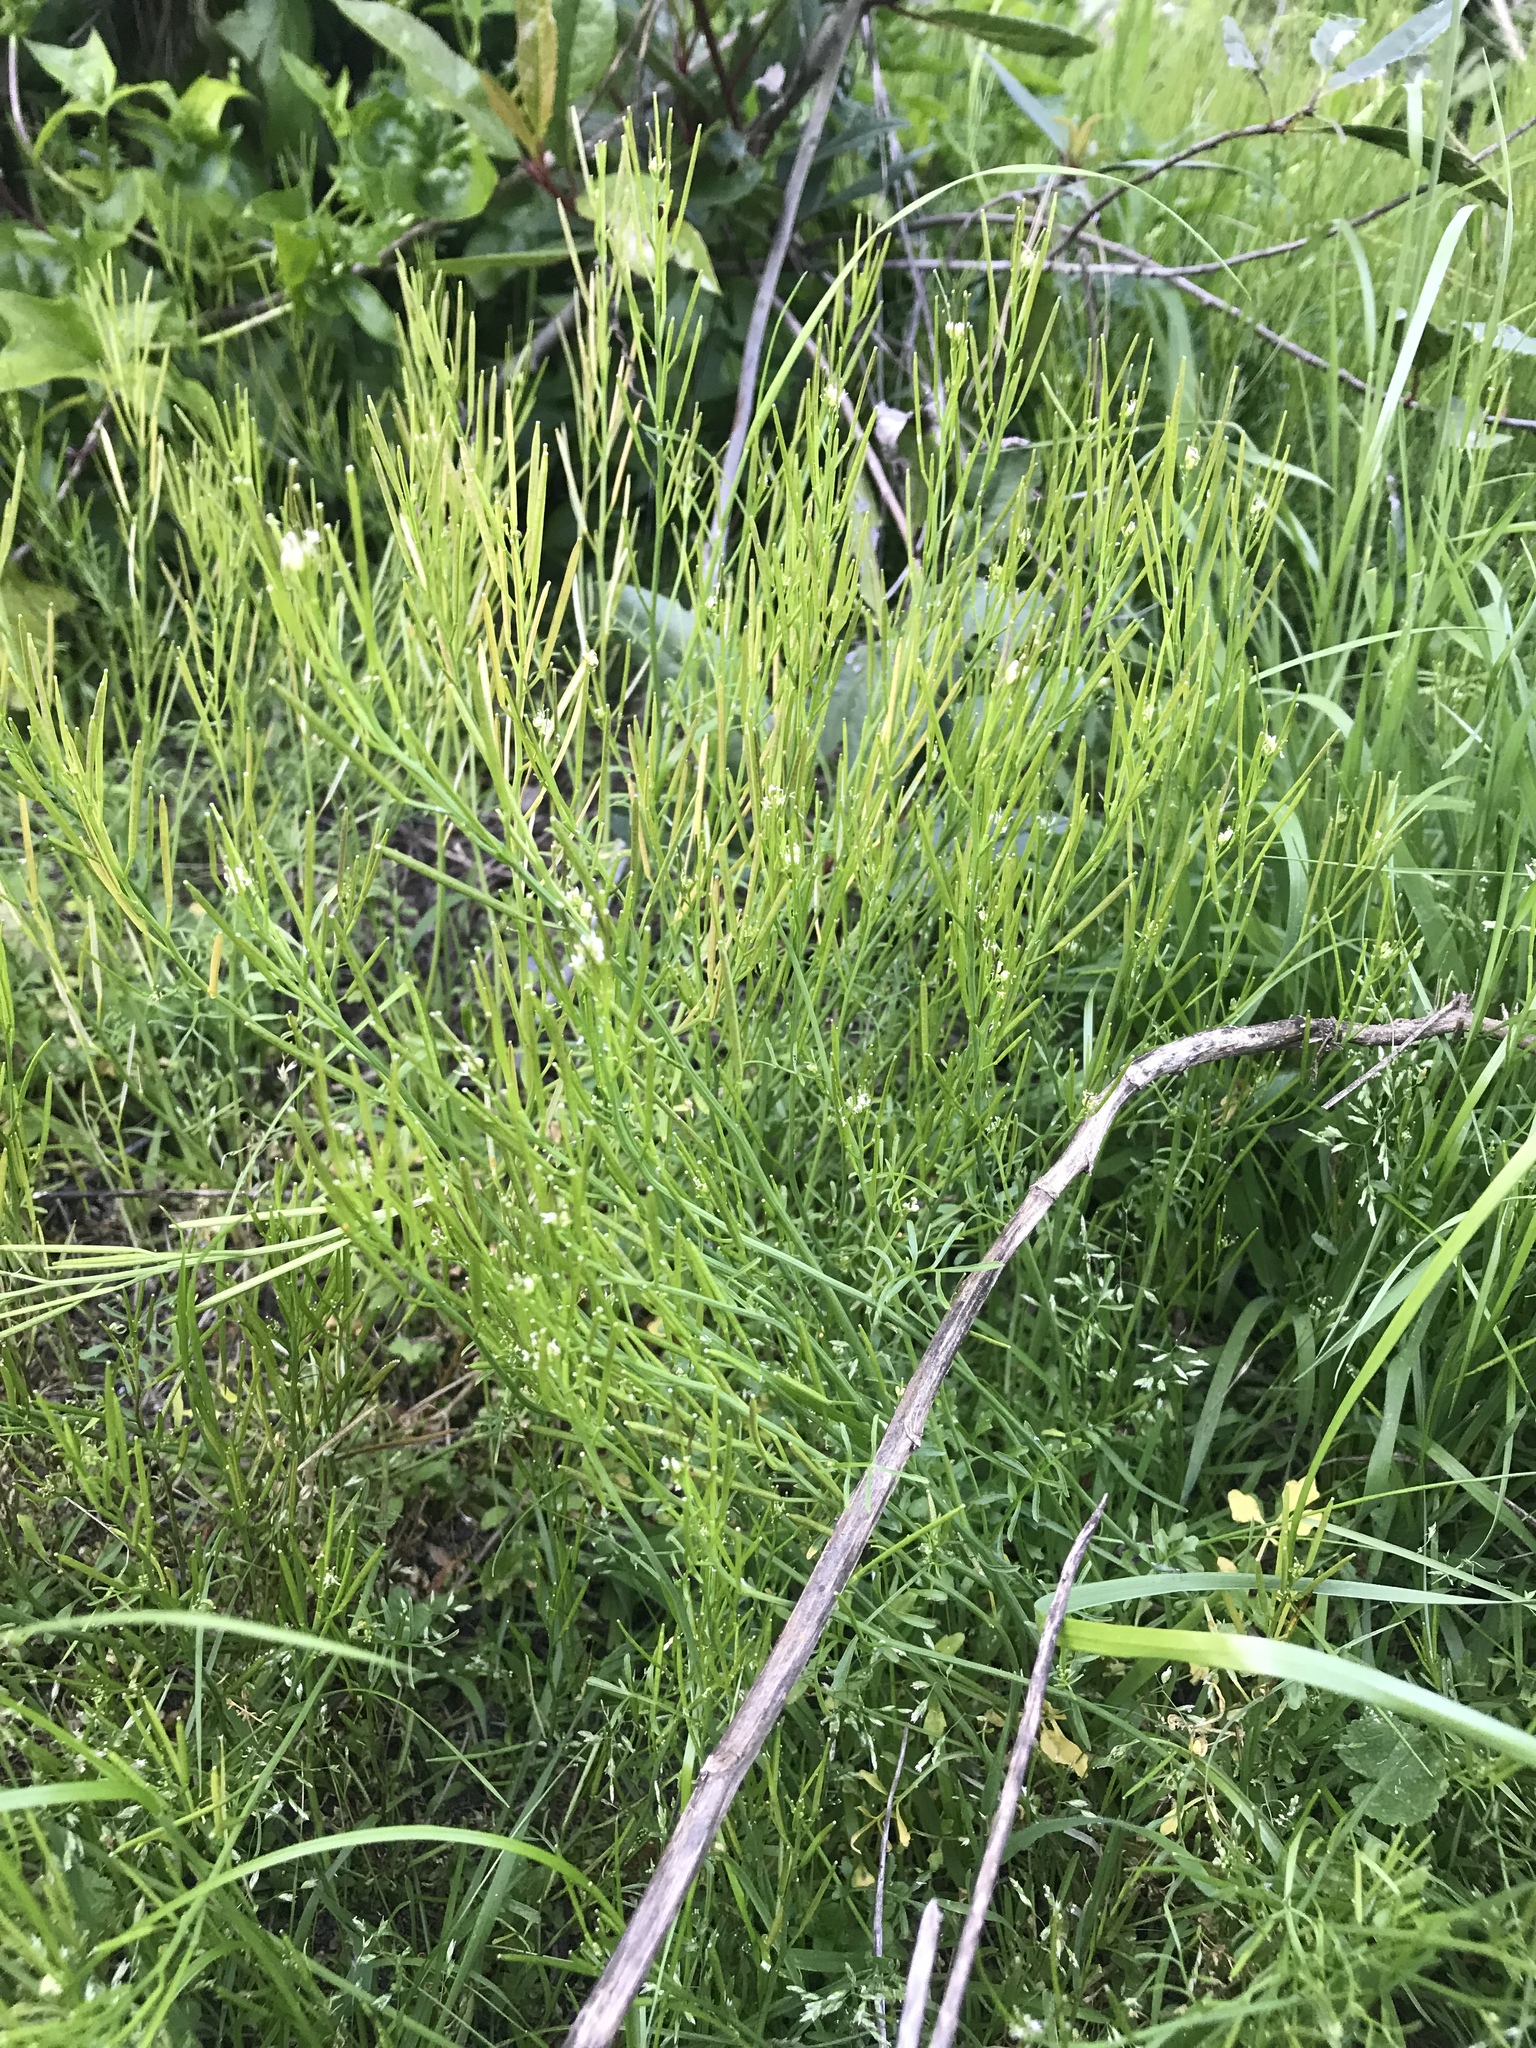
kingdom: Plantae
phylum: Tracheophyta
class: Magnoliopsida
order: Brassicales
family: Brassicaceae
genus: Cardamine
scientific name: Cardamine hirsuta
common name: Hairy bittercress
